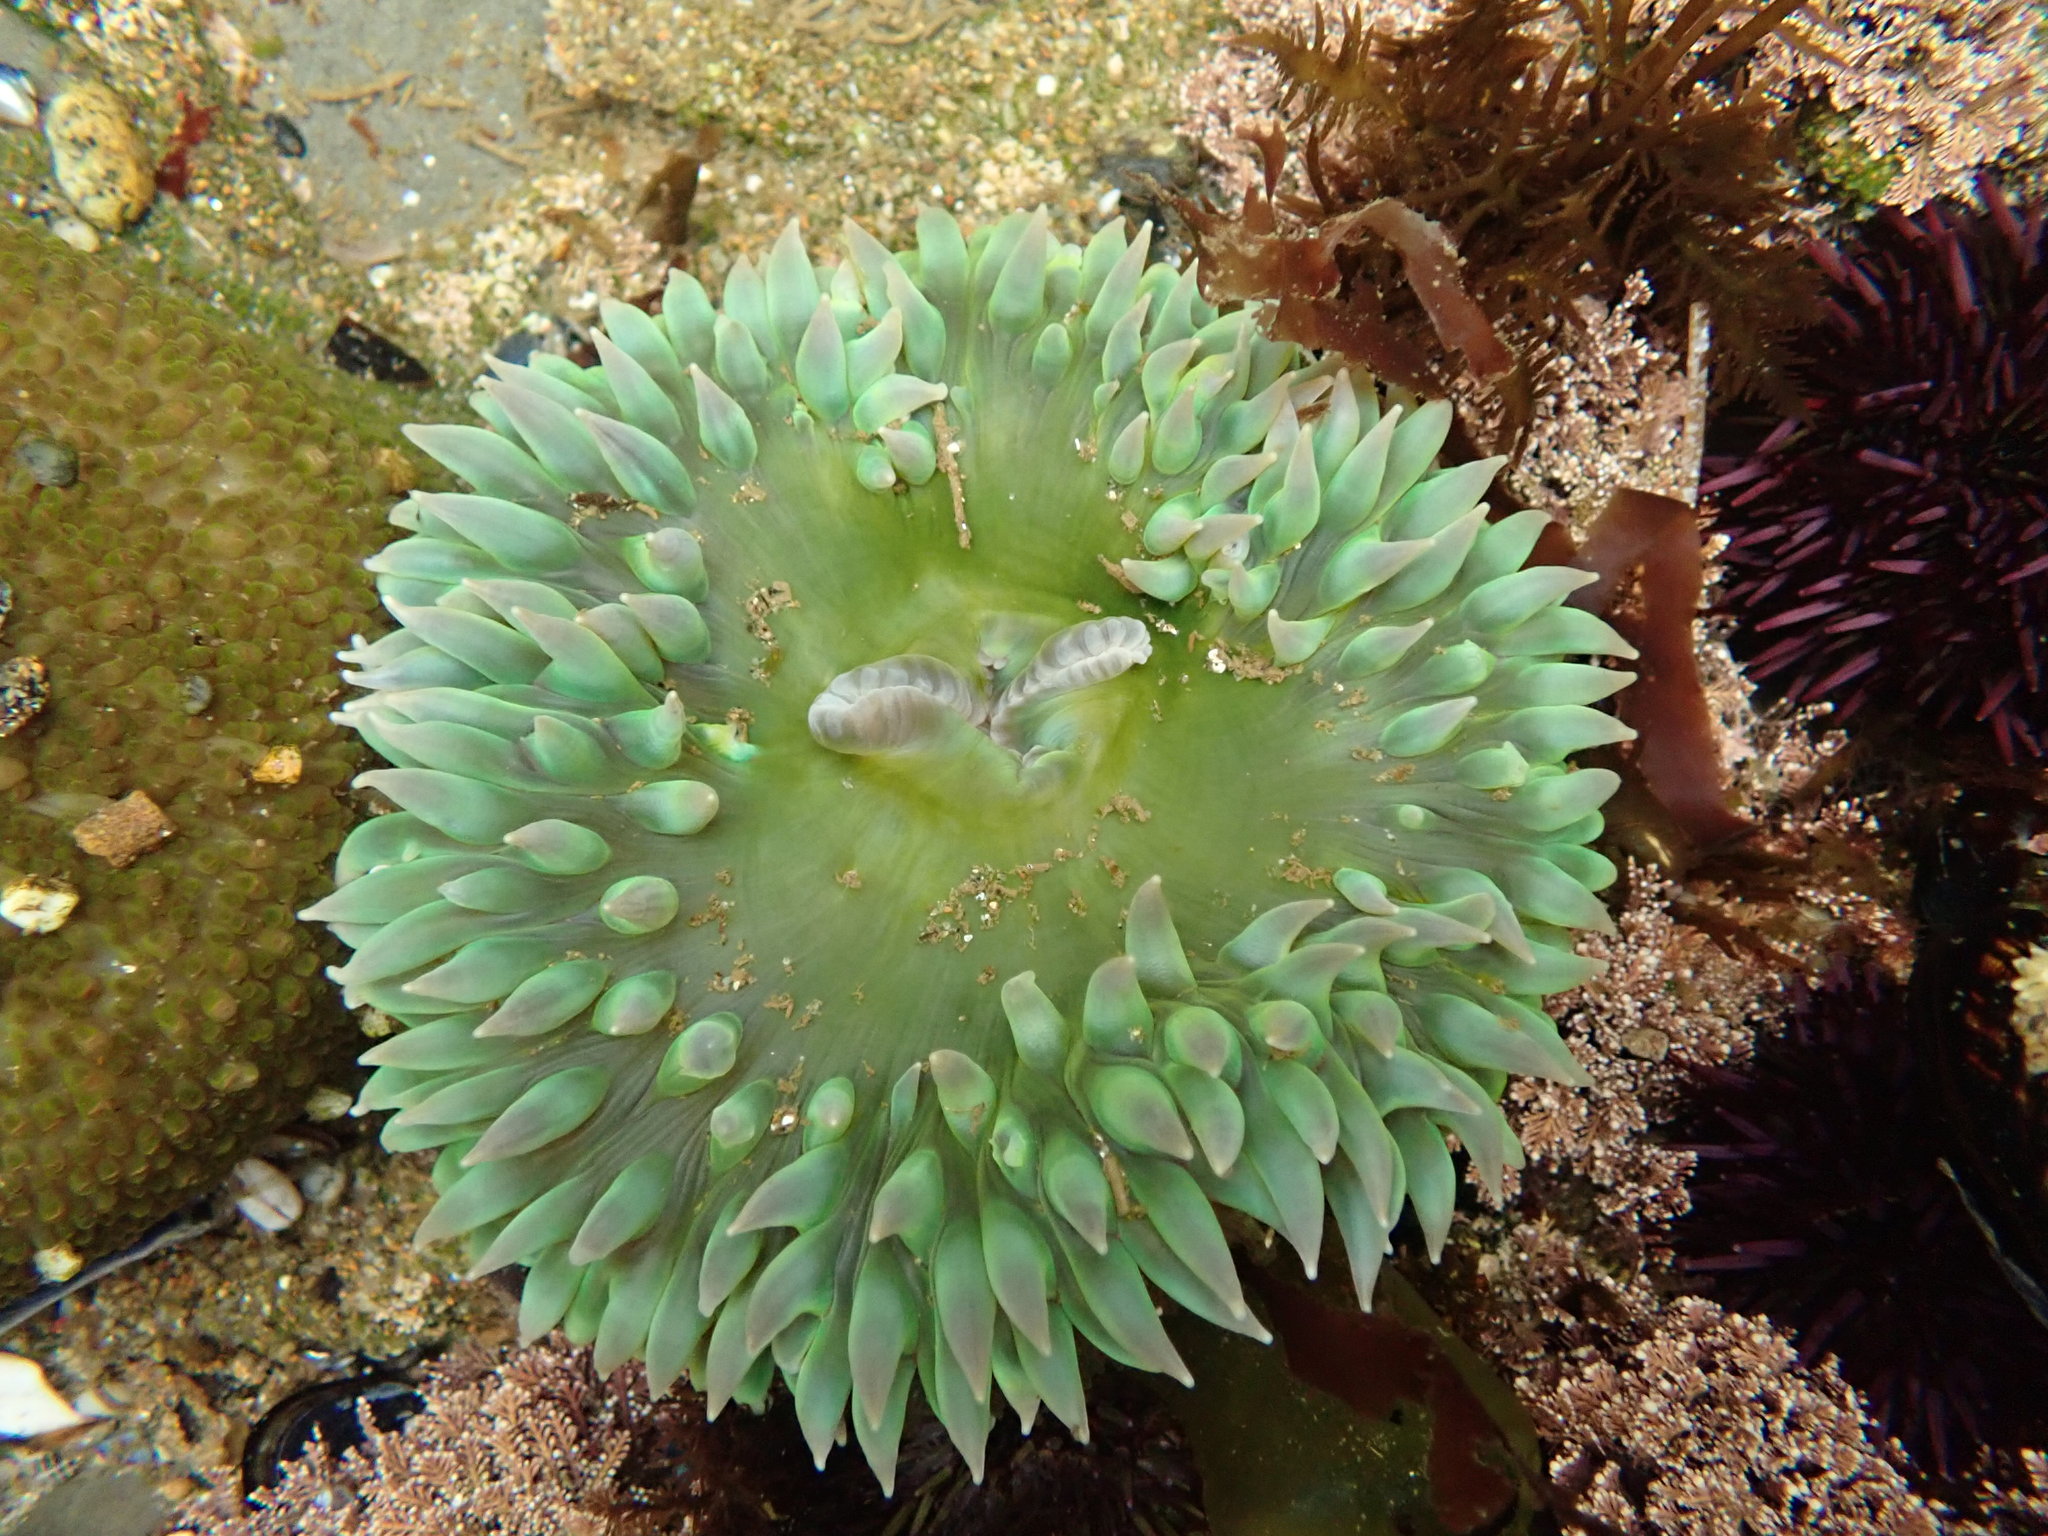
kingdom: Animalia
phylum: Cnidaria
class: Anthozoa
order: Actiniaria
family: Actiniidae
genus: Anthopleura
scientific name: Anthopleura xanthogrammica
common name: Giant green anemone
